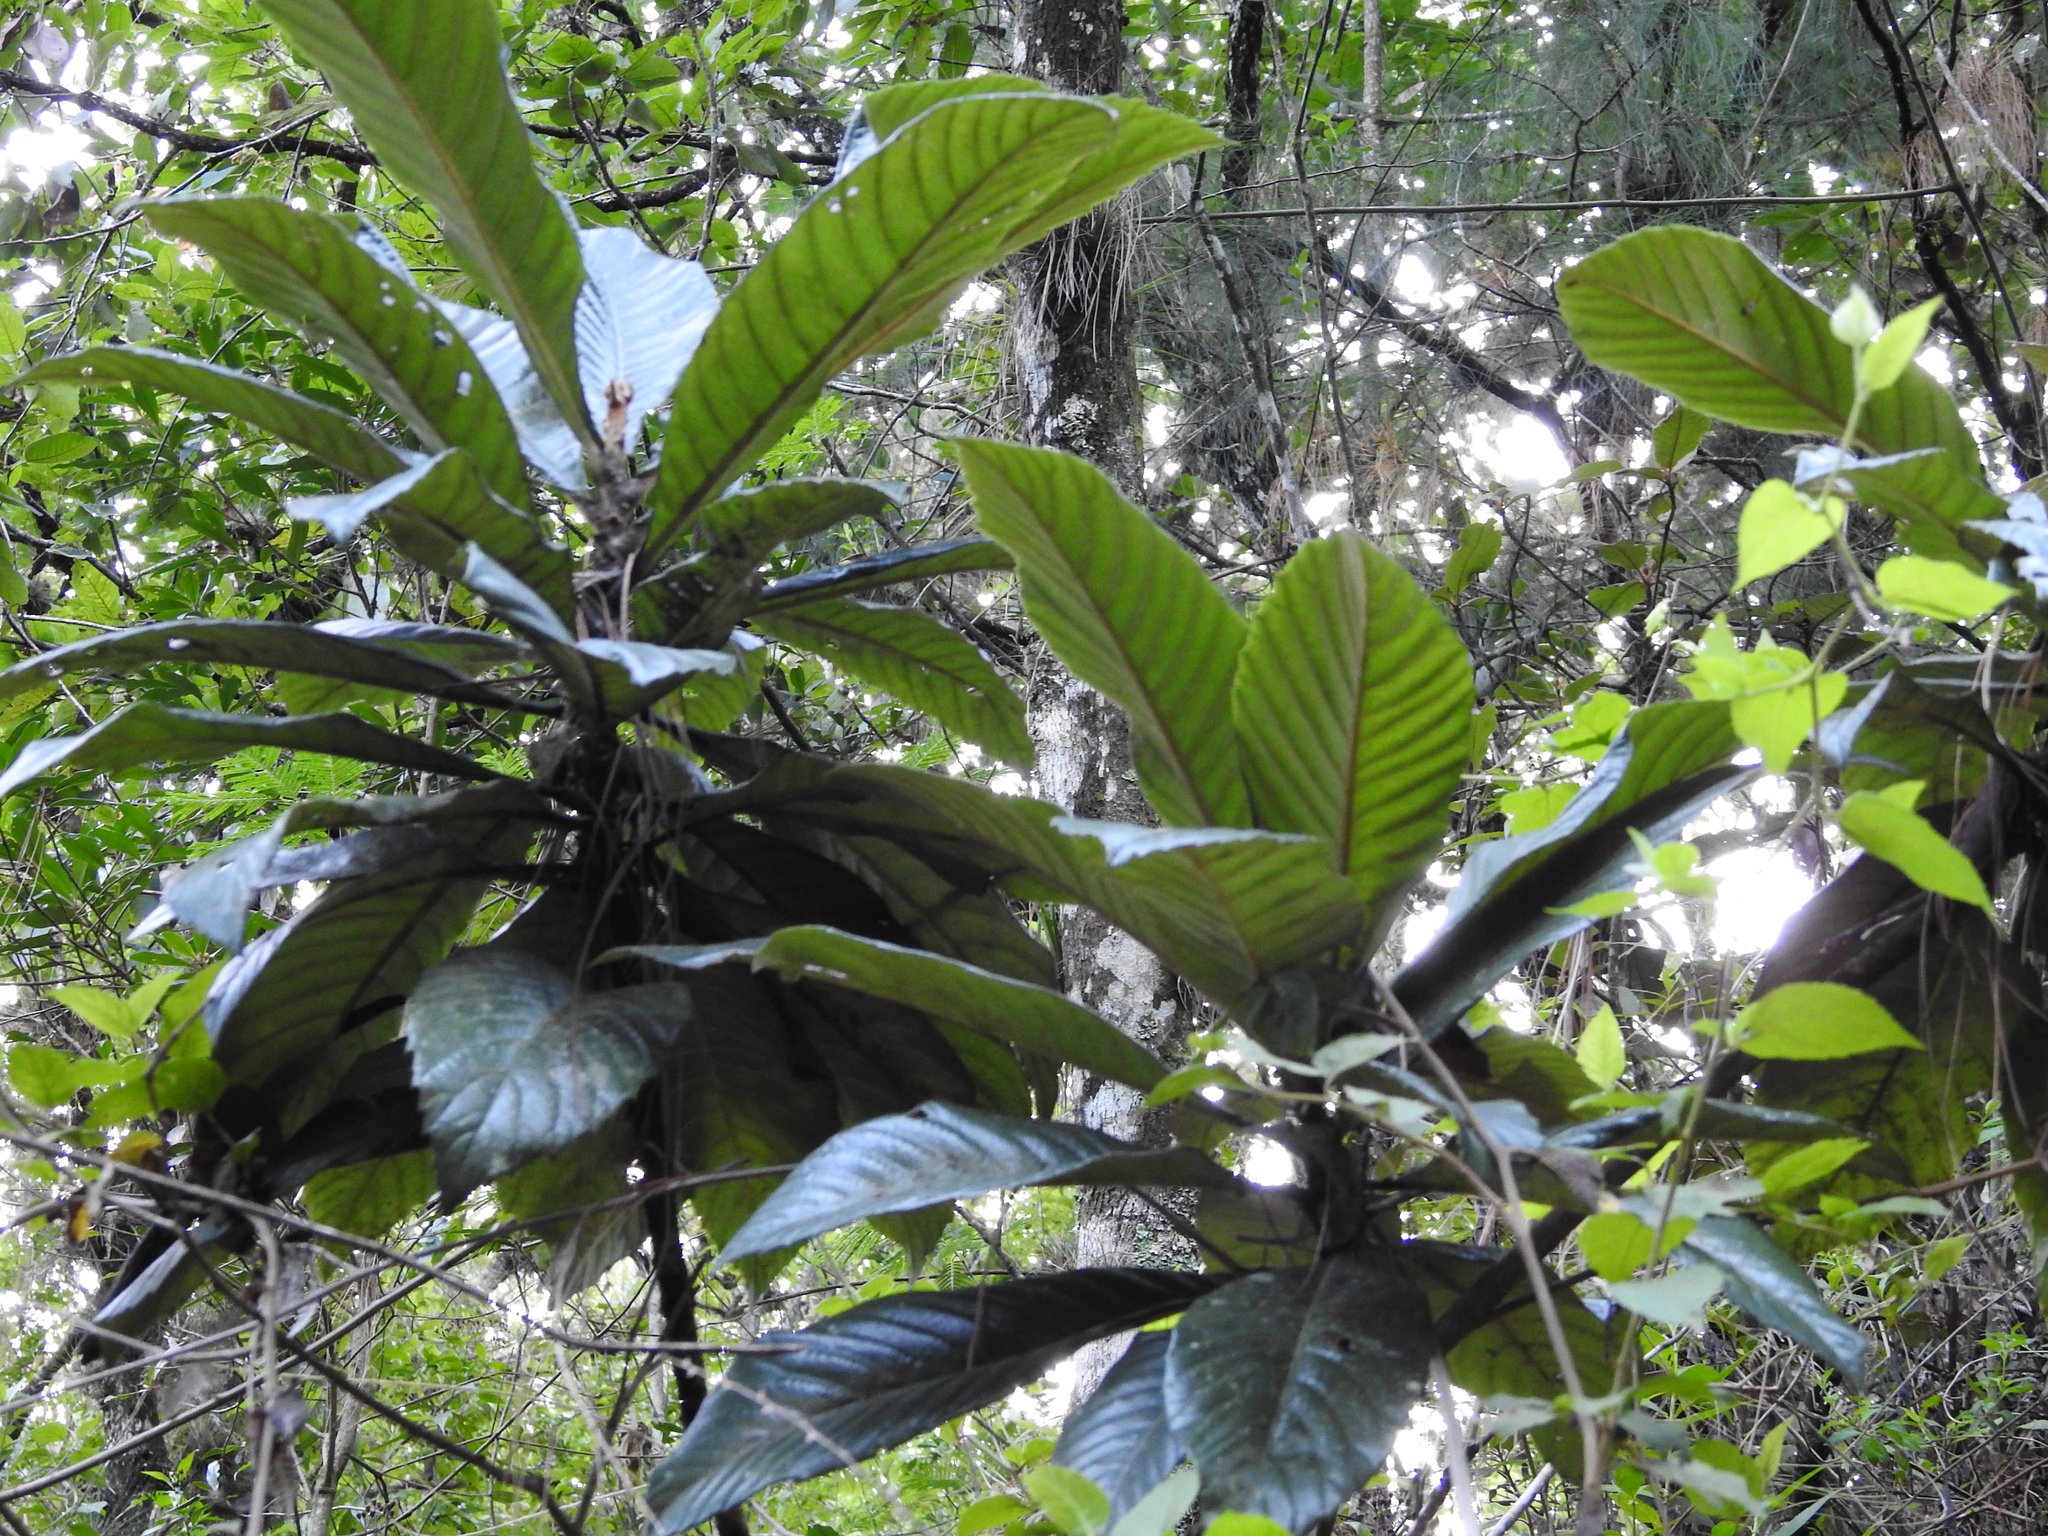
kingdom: Plantae
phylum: Tracheophyta
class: Magnoliopsida
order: Rosales
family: Rosaceae
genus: Rhaphiolepis
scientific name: Rhaphiolepis bibas
